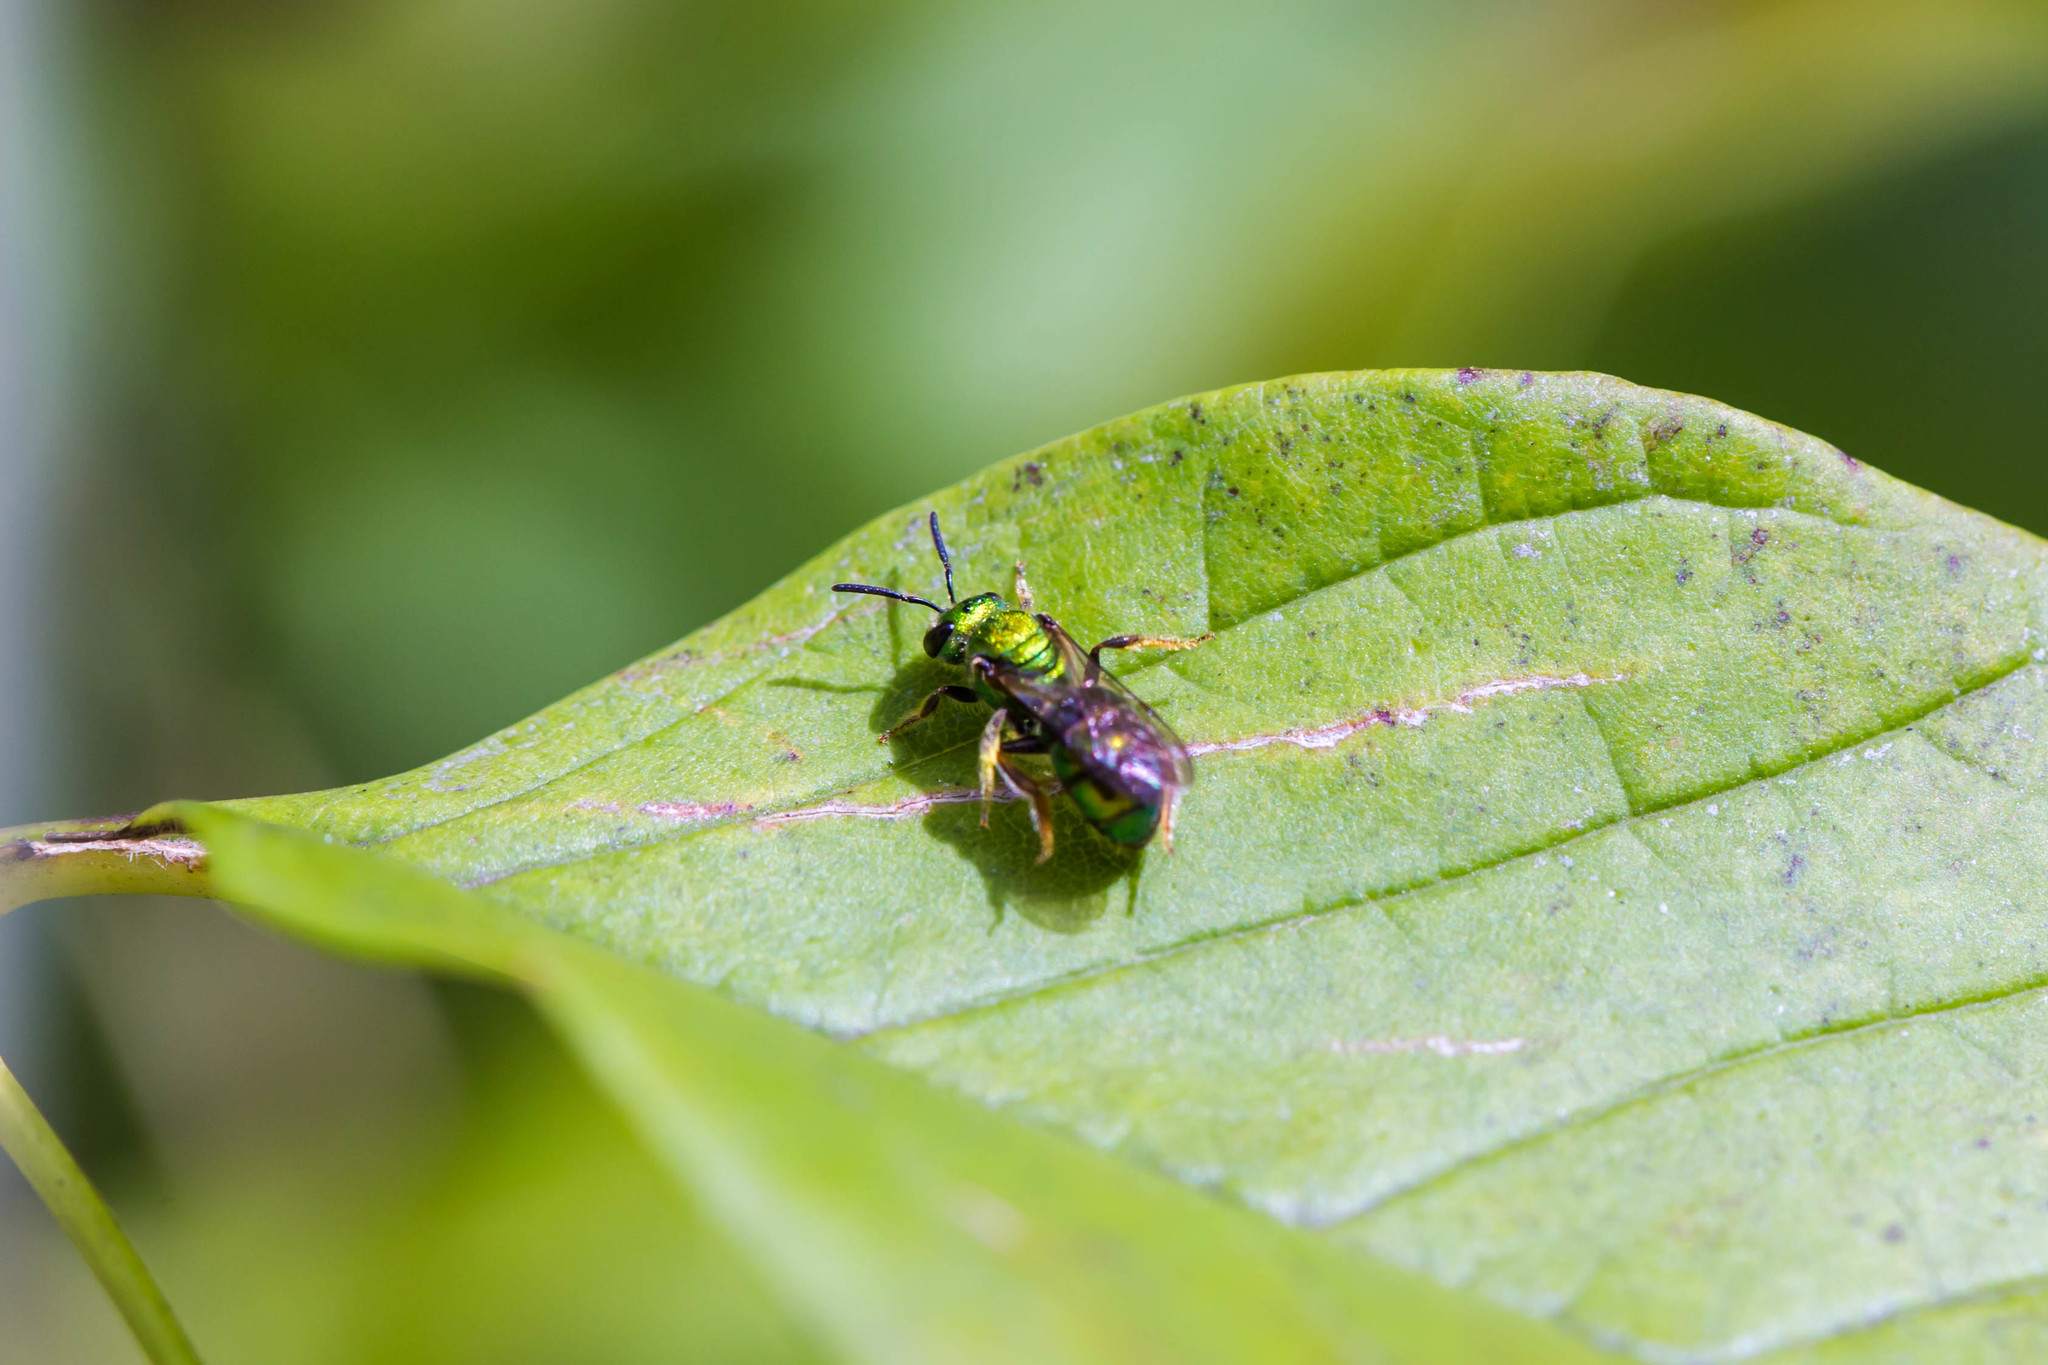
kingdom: Animalia
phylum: Arthropoda
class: Insecta
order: Hymenoptera
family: Halictidae
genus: Augochlora
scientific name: Augochlora pura
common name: Pure green sweat bee
